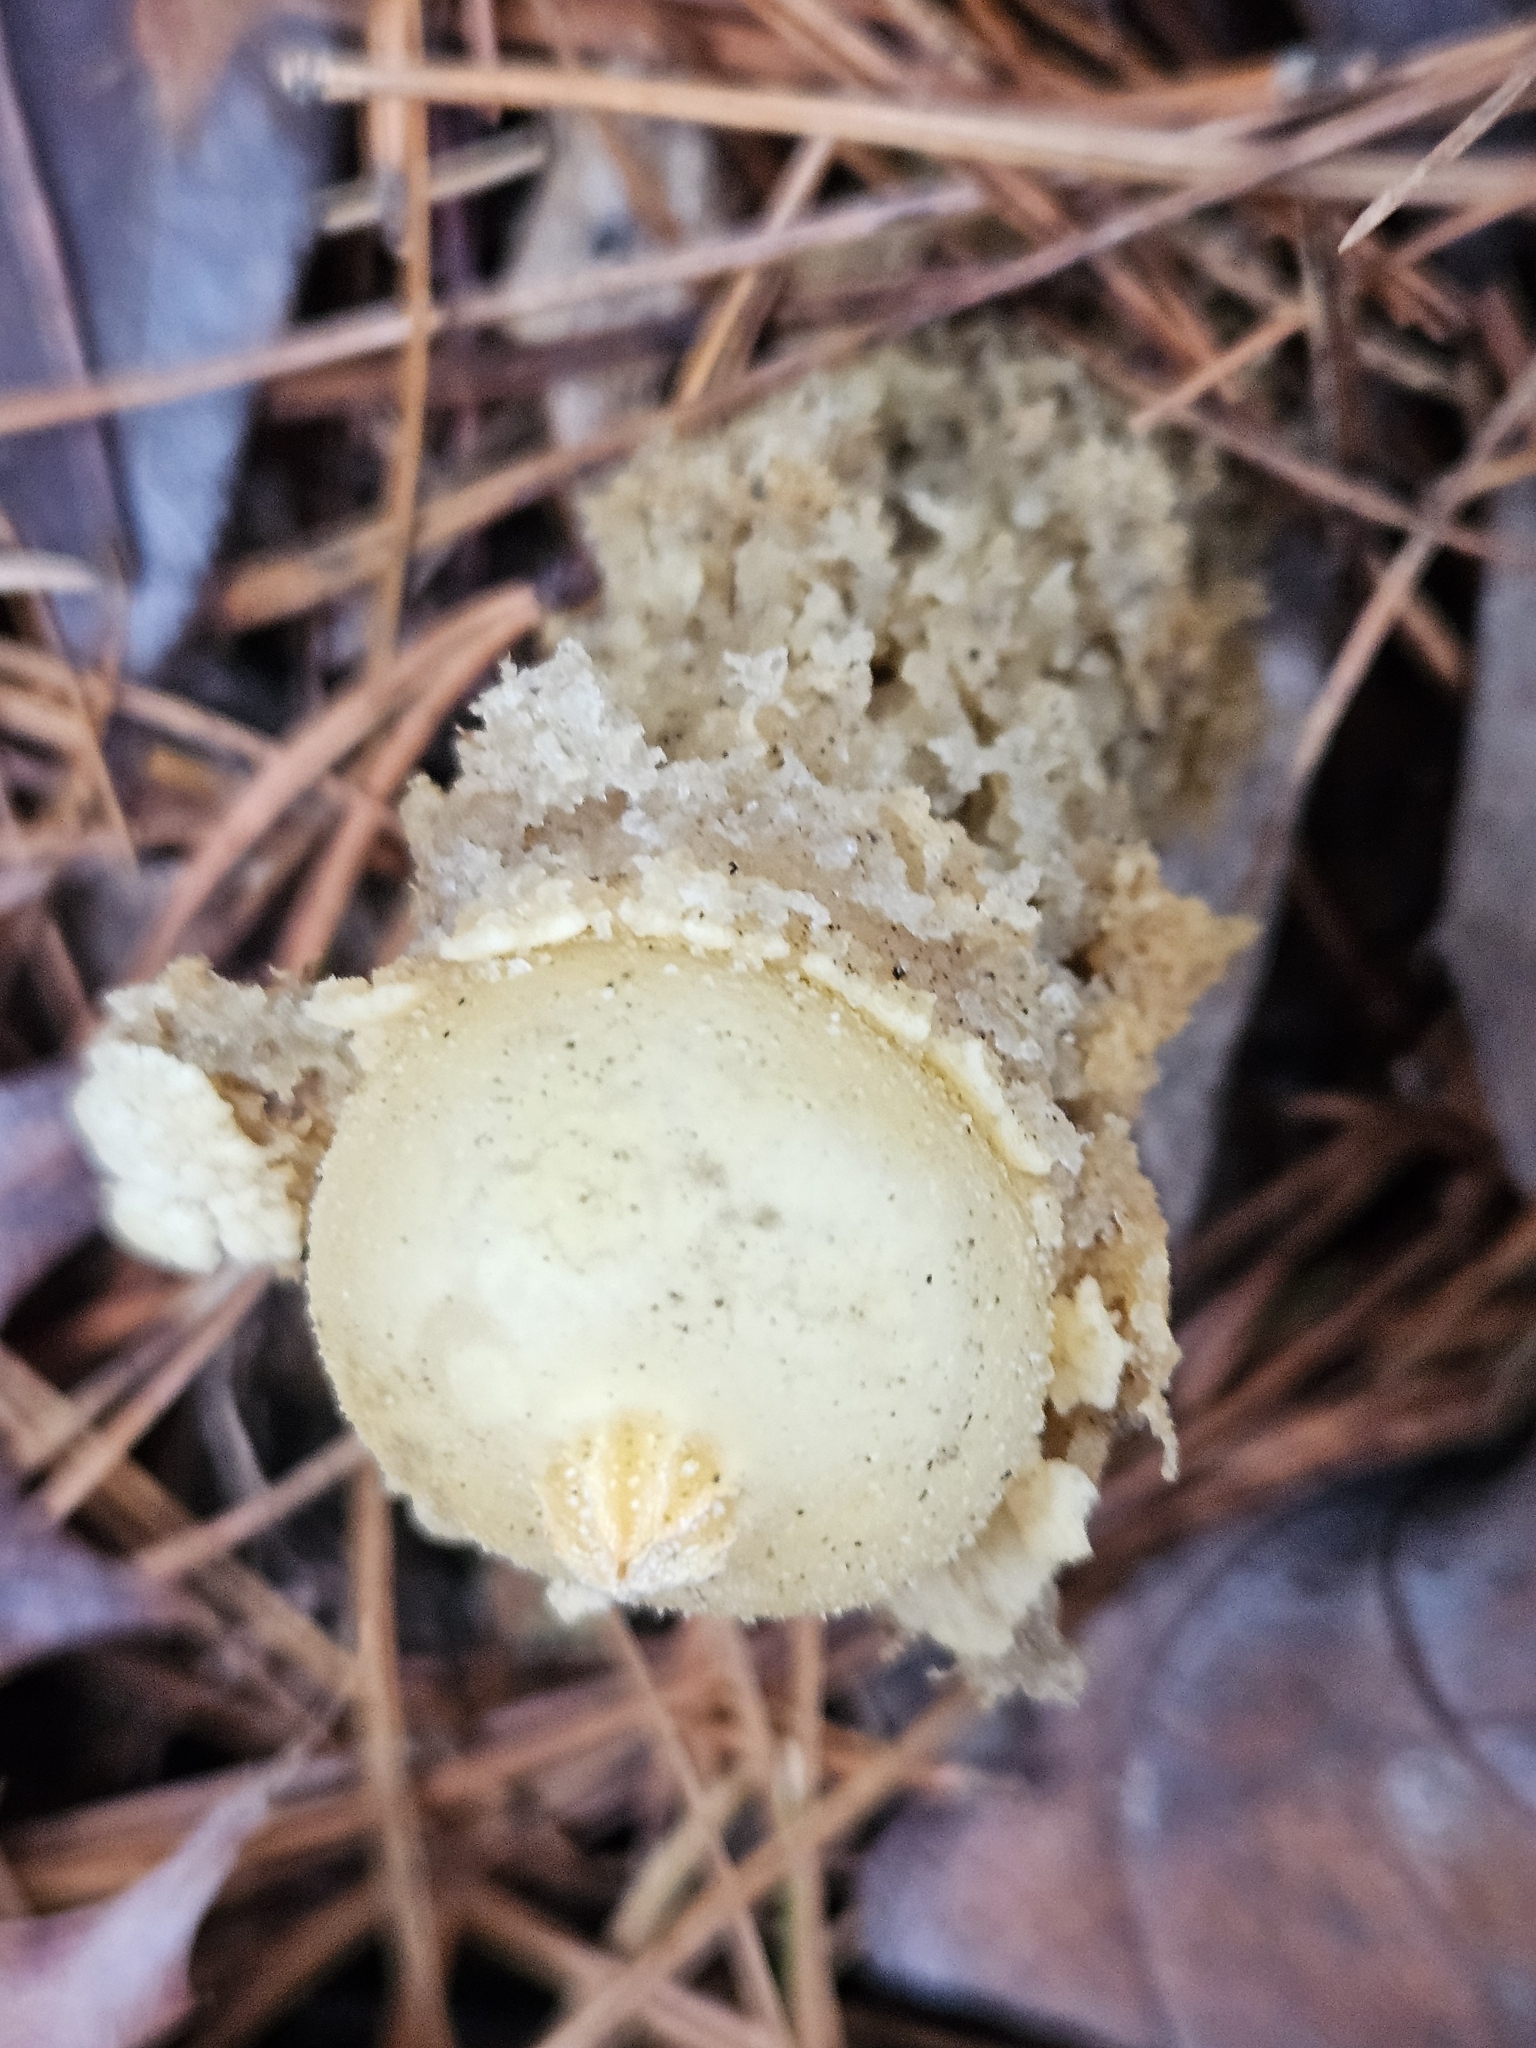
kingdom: Fungi
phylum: Basidiomycota
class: Agaricomycetes
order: Boletales
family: Calostomataceae
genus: Calostoma
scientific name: Calostoma lutescens
